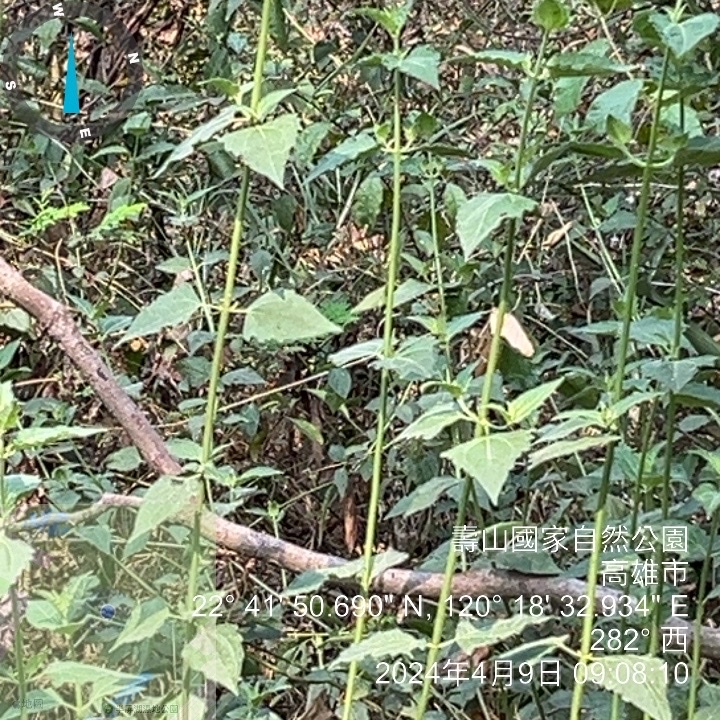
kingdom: Plantae
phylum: Tracheophyta
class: Magnoliopsida
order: Asterales
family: Asteraceae
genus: Chromolaena
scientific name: Chromolaena odorata
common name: Siamweed
